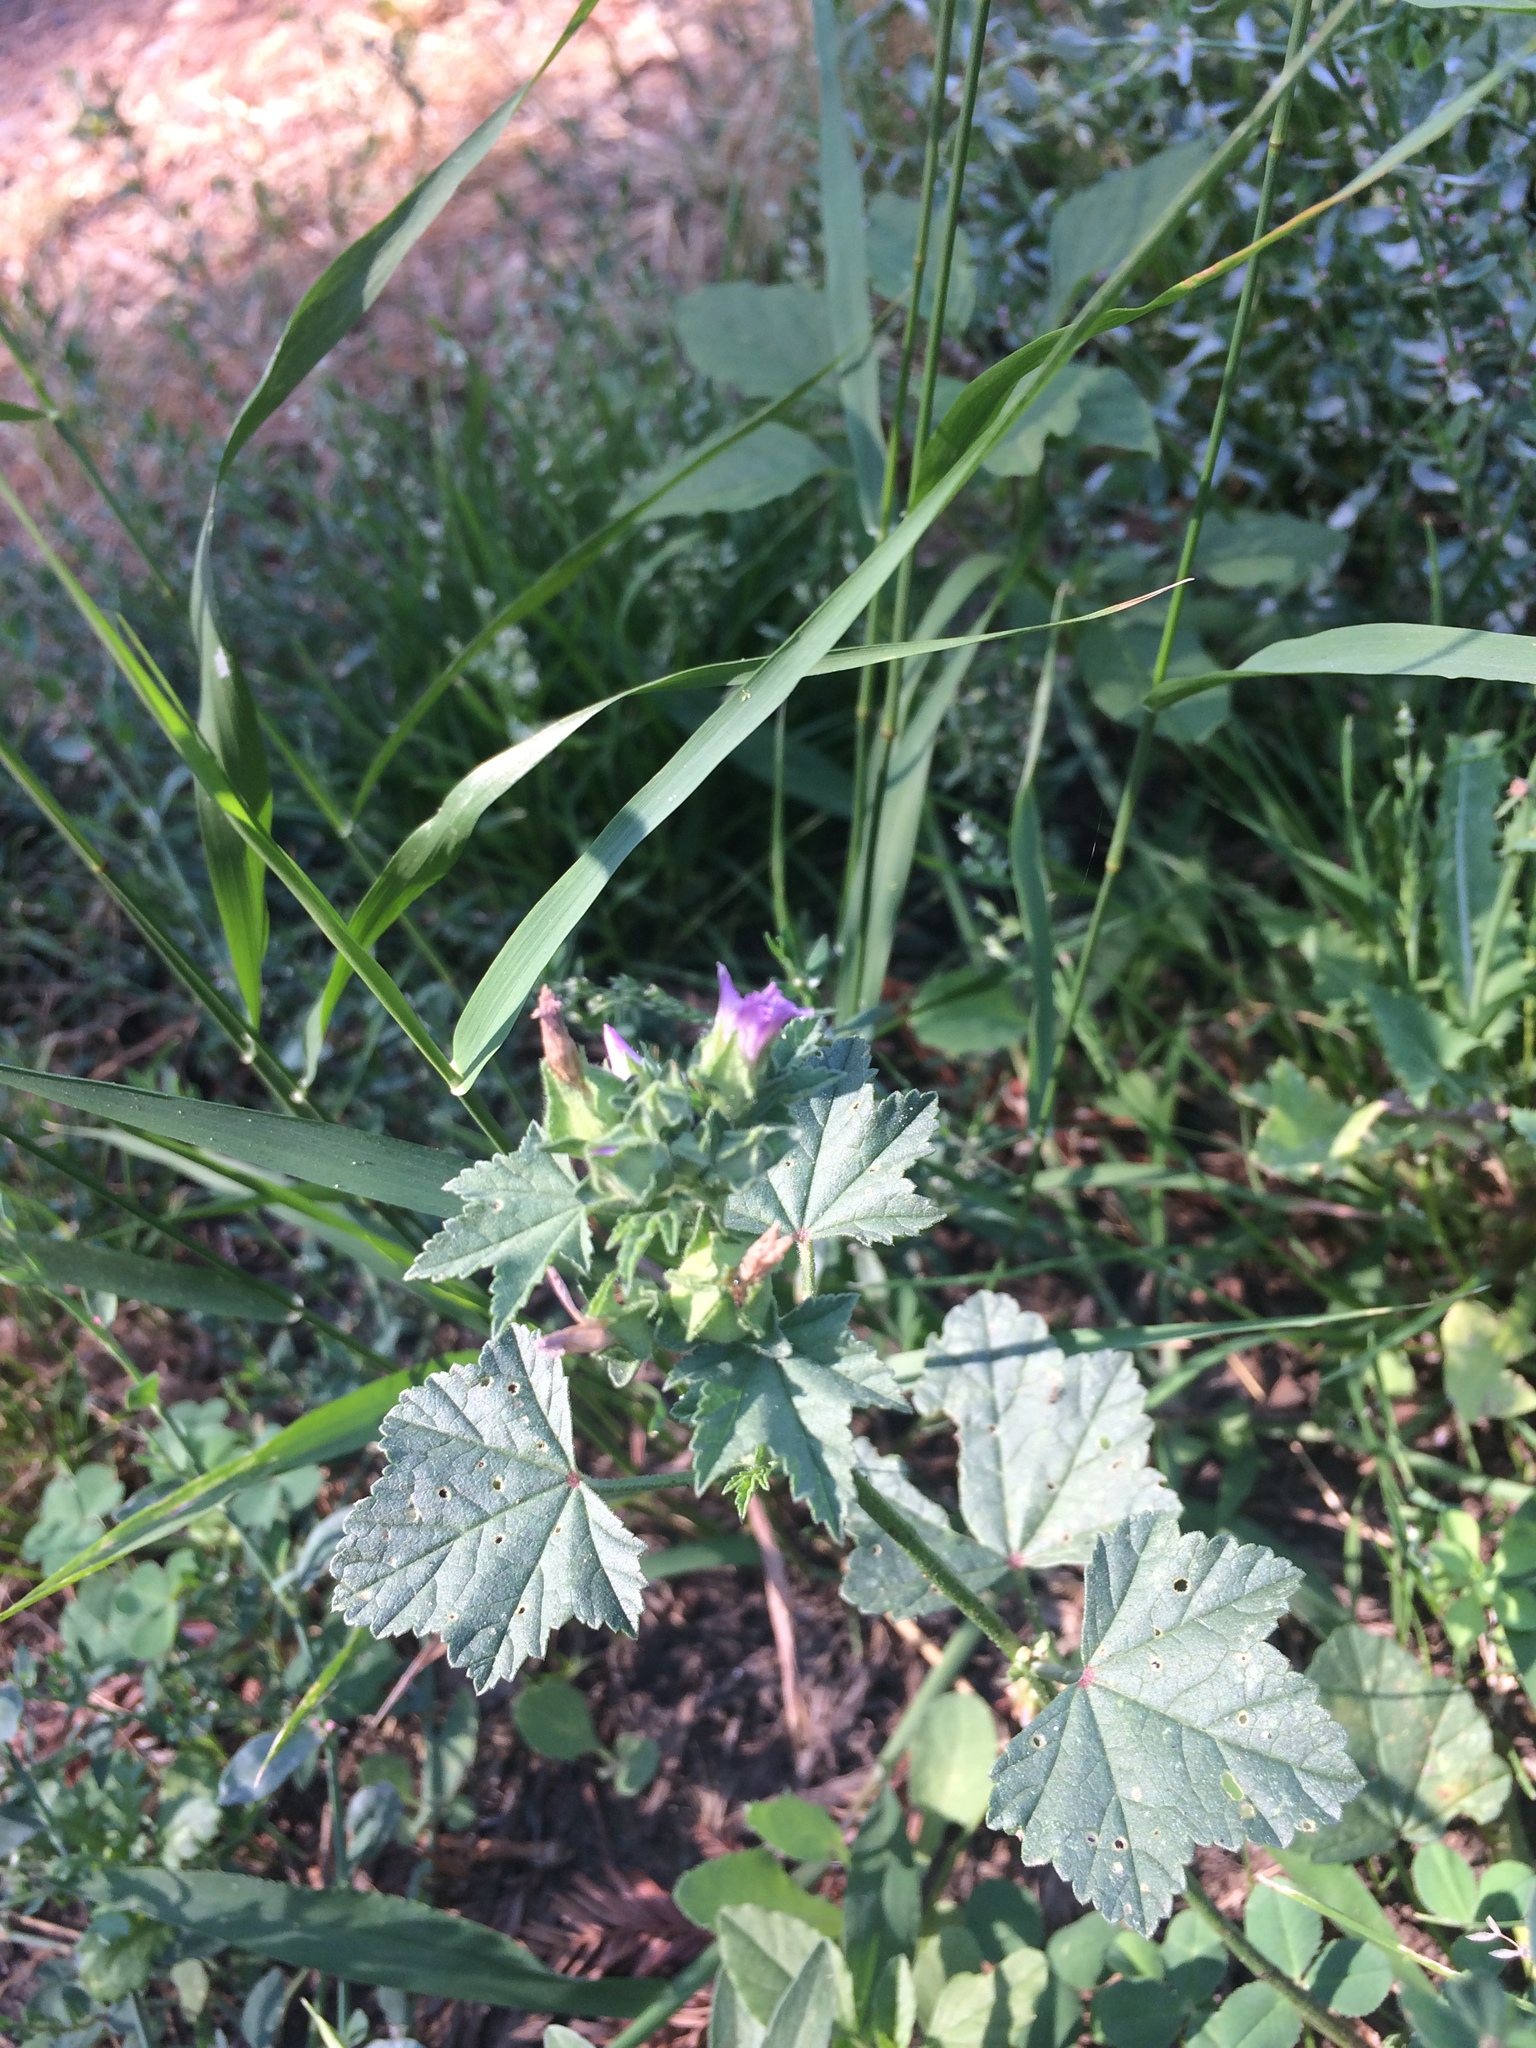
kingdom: Plantae
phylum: Tracheophyta
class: Magnoliopsida
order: Malvales
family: Malvaceae
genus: Malva
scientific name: Malva multiflora
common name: Cheeseweed
